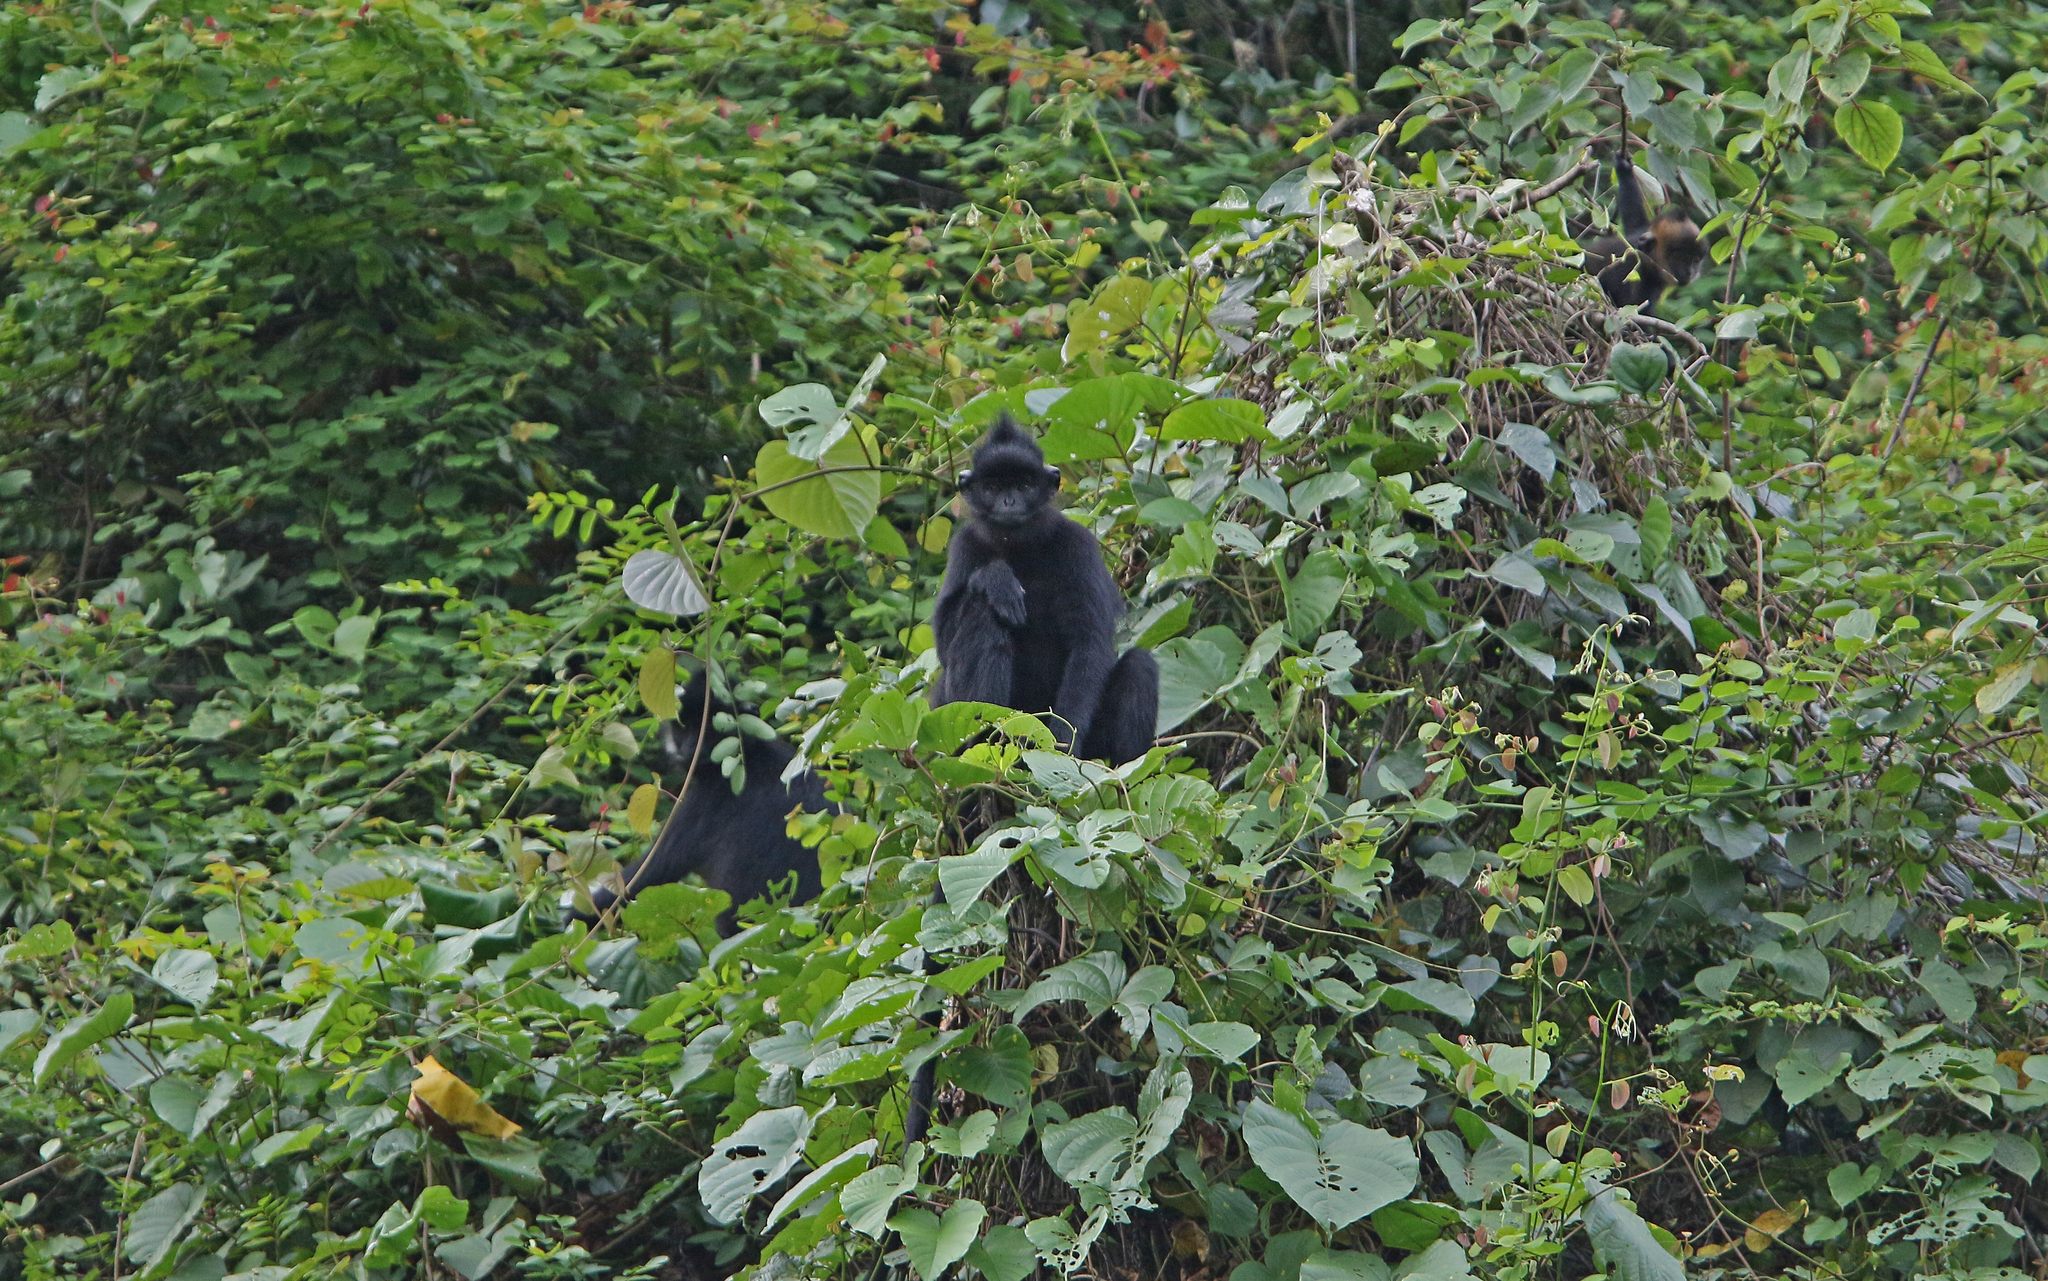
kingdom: Animalia
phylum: Chordata
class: Mammalia
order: Primates
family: Cercopithecidae
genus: Trachypithecus
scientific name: Trachypithecus hatinhensis
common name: Hatinh langur
